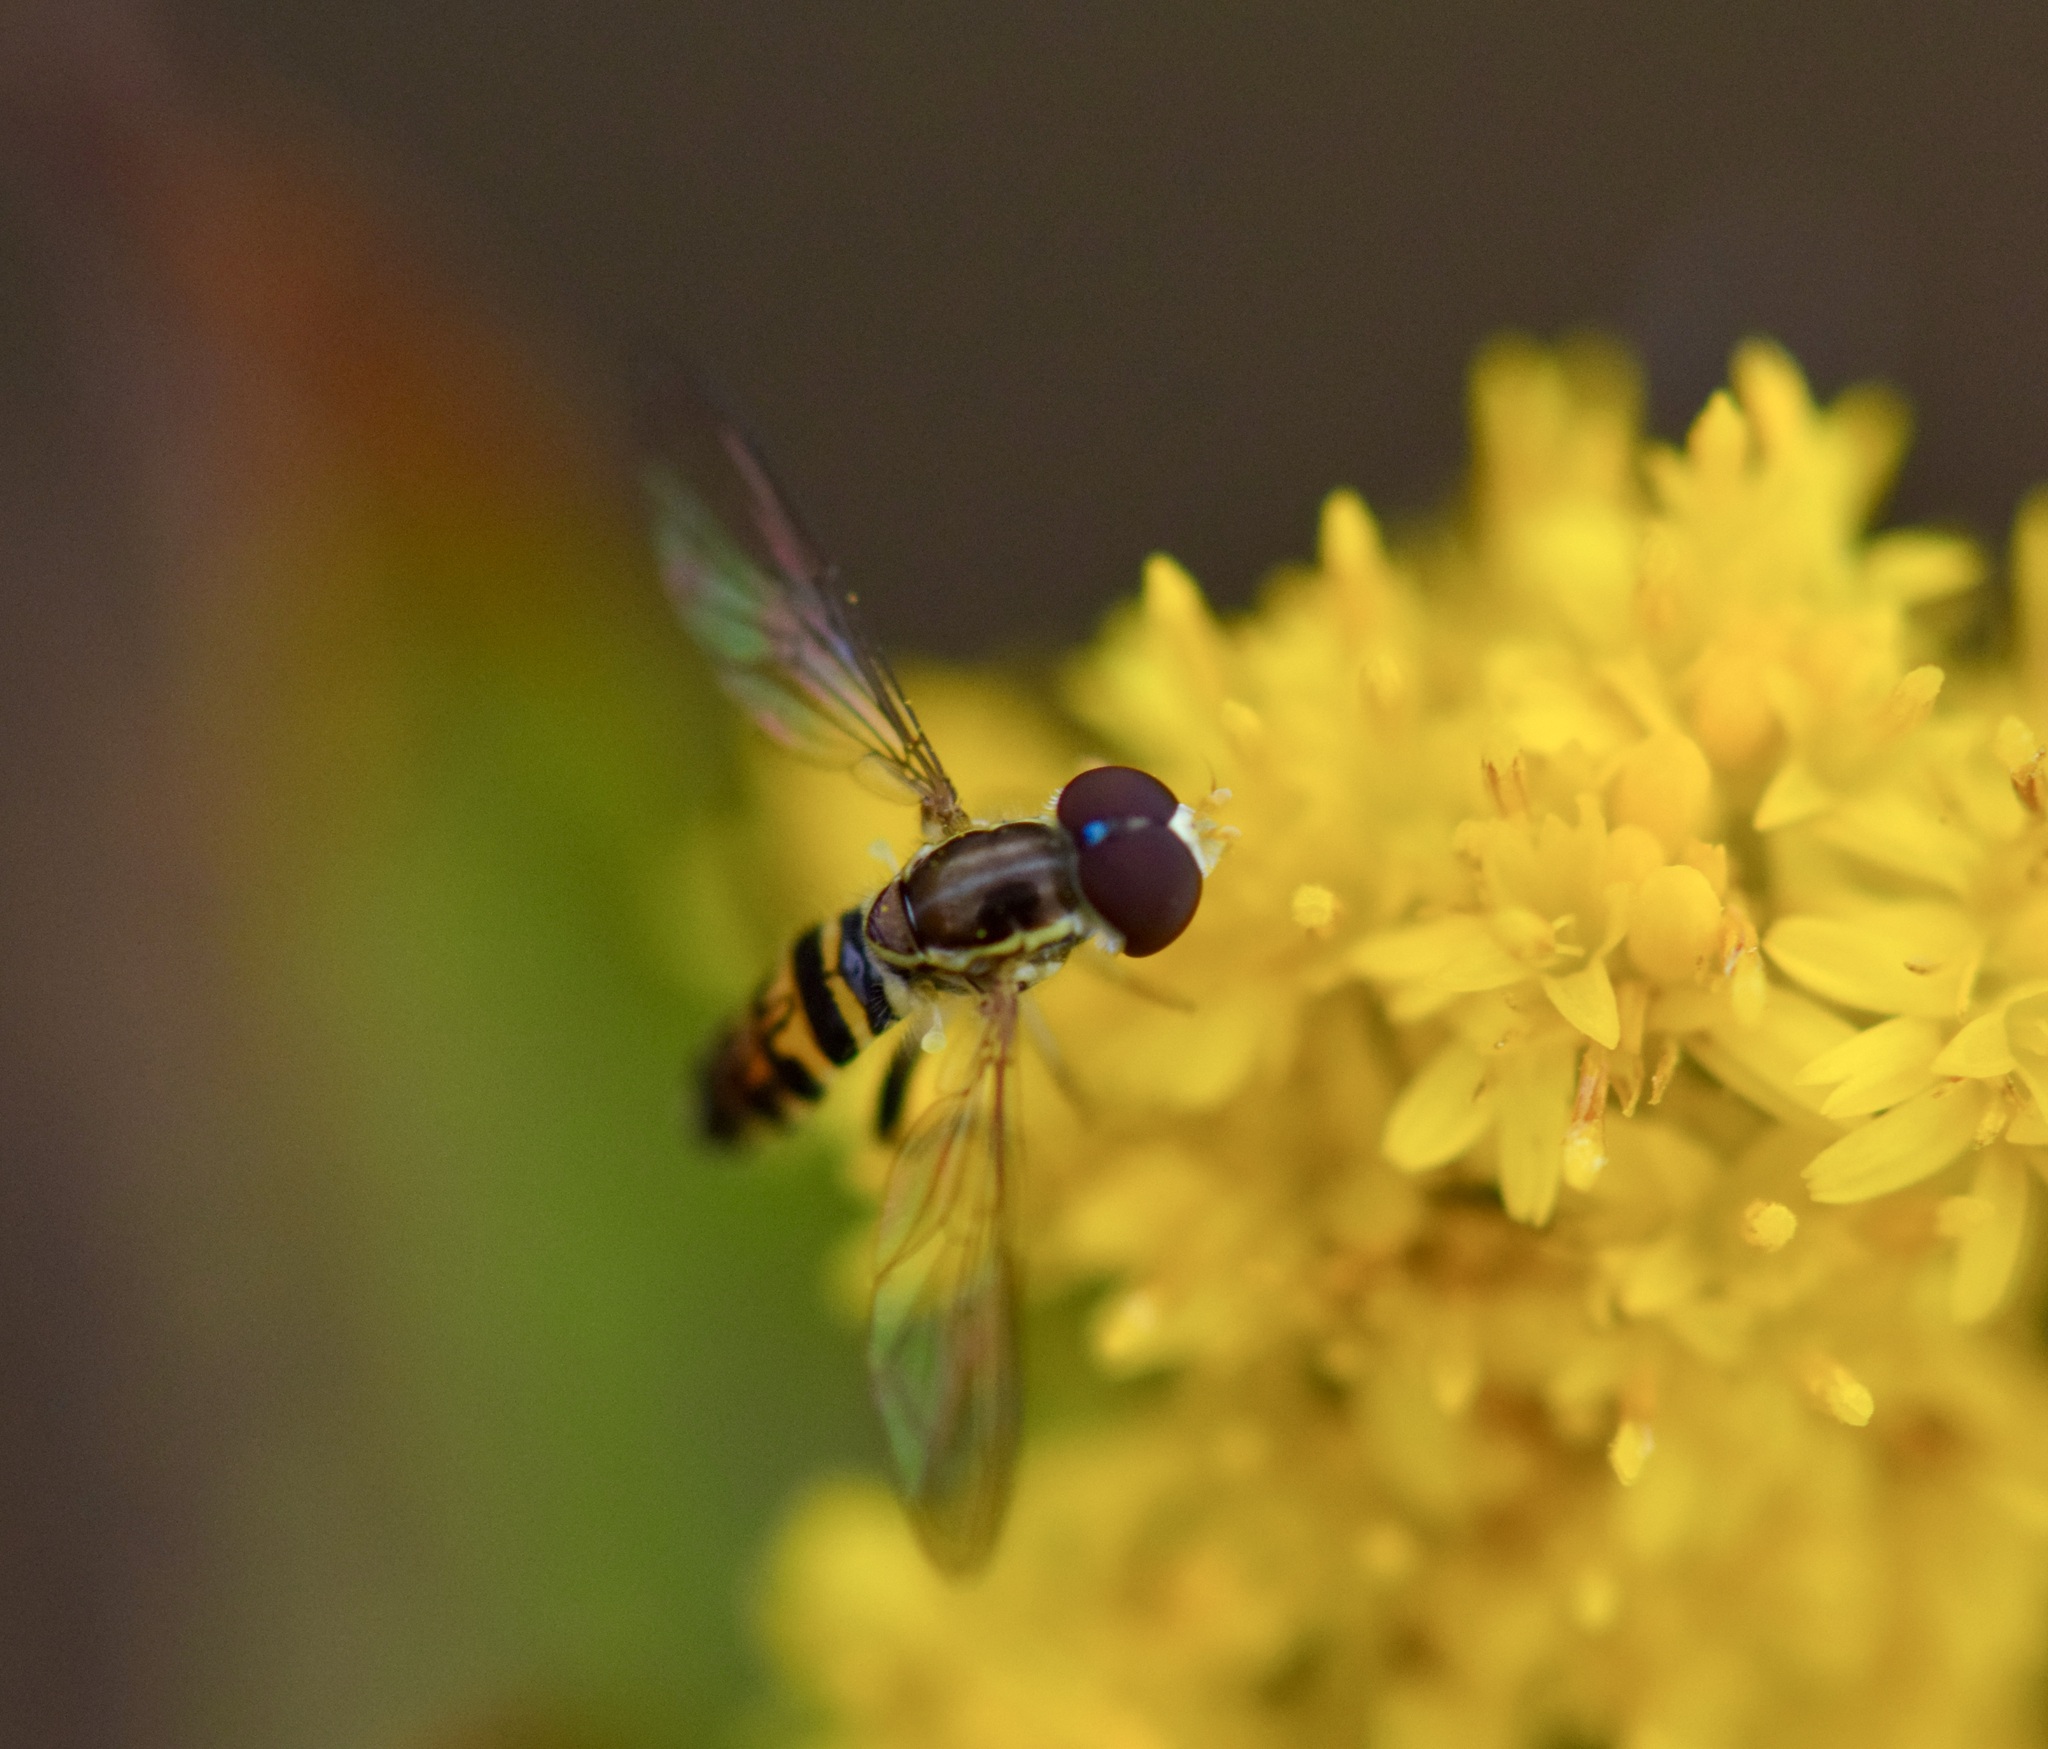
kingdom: Animalia
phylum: Arthropoda
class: Insecta
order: Diptera
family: Syrphidae
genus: Toxomerus
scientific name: Toxomerus geminatus
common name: Eastern calligrapher
